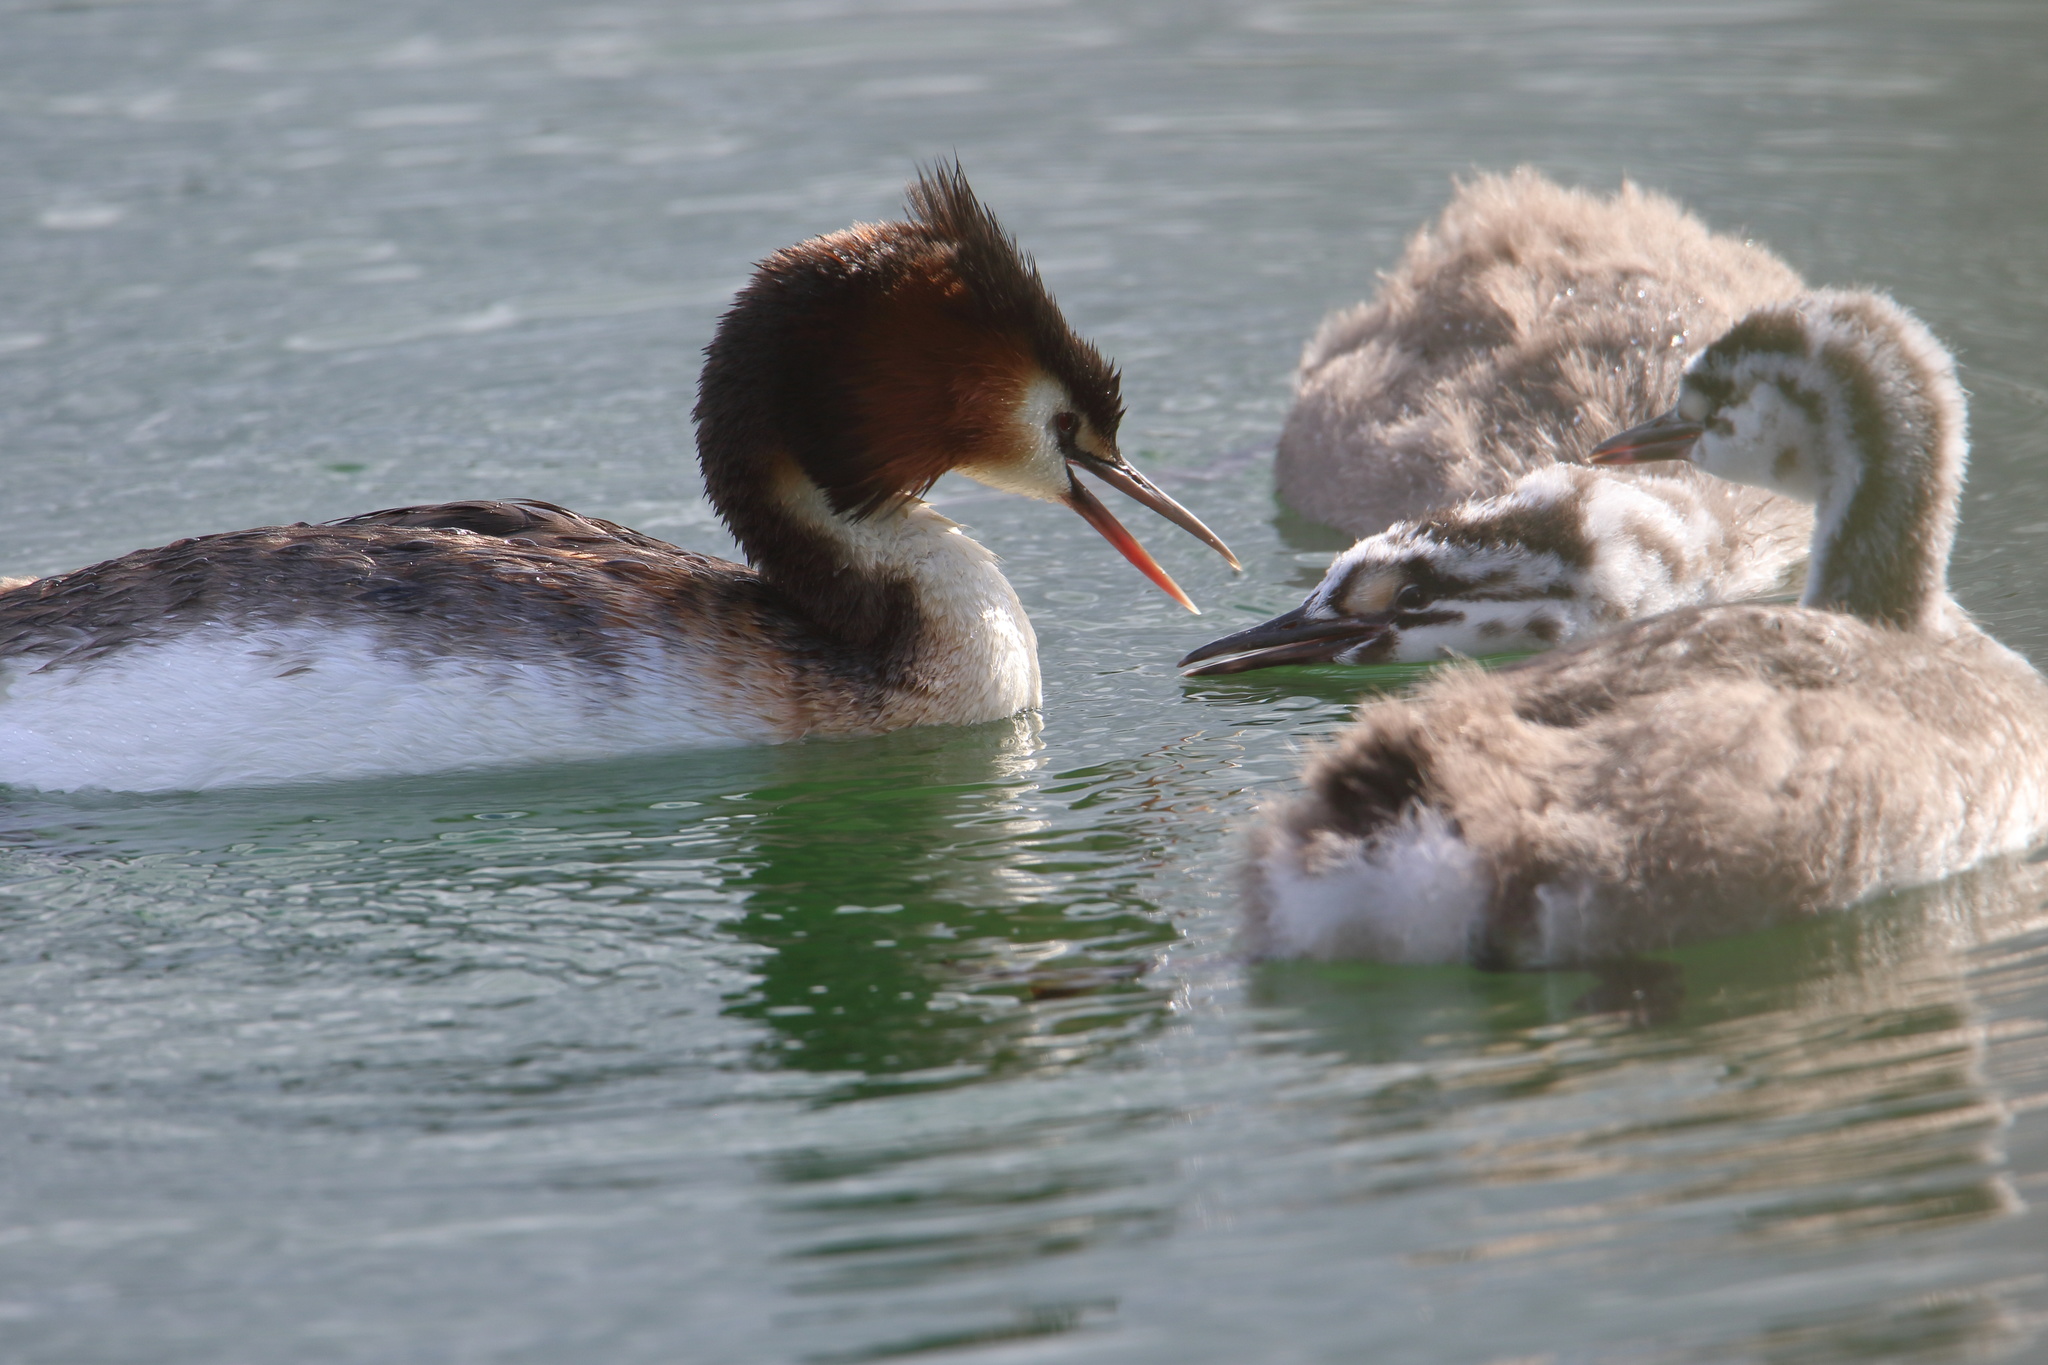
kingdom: Animalia
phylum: Chordata
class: Aves
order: Podicipediformes
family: Podicipedidae
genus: Podiceps
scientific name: Podiceps cristatus
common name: Great crested grebe
